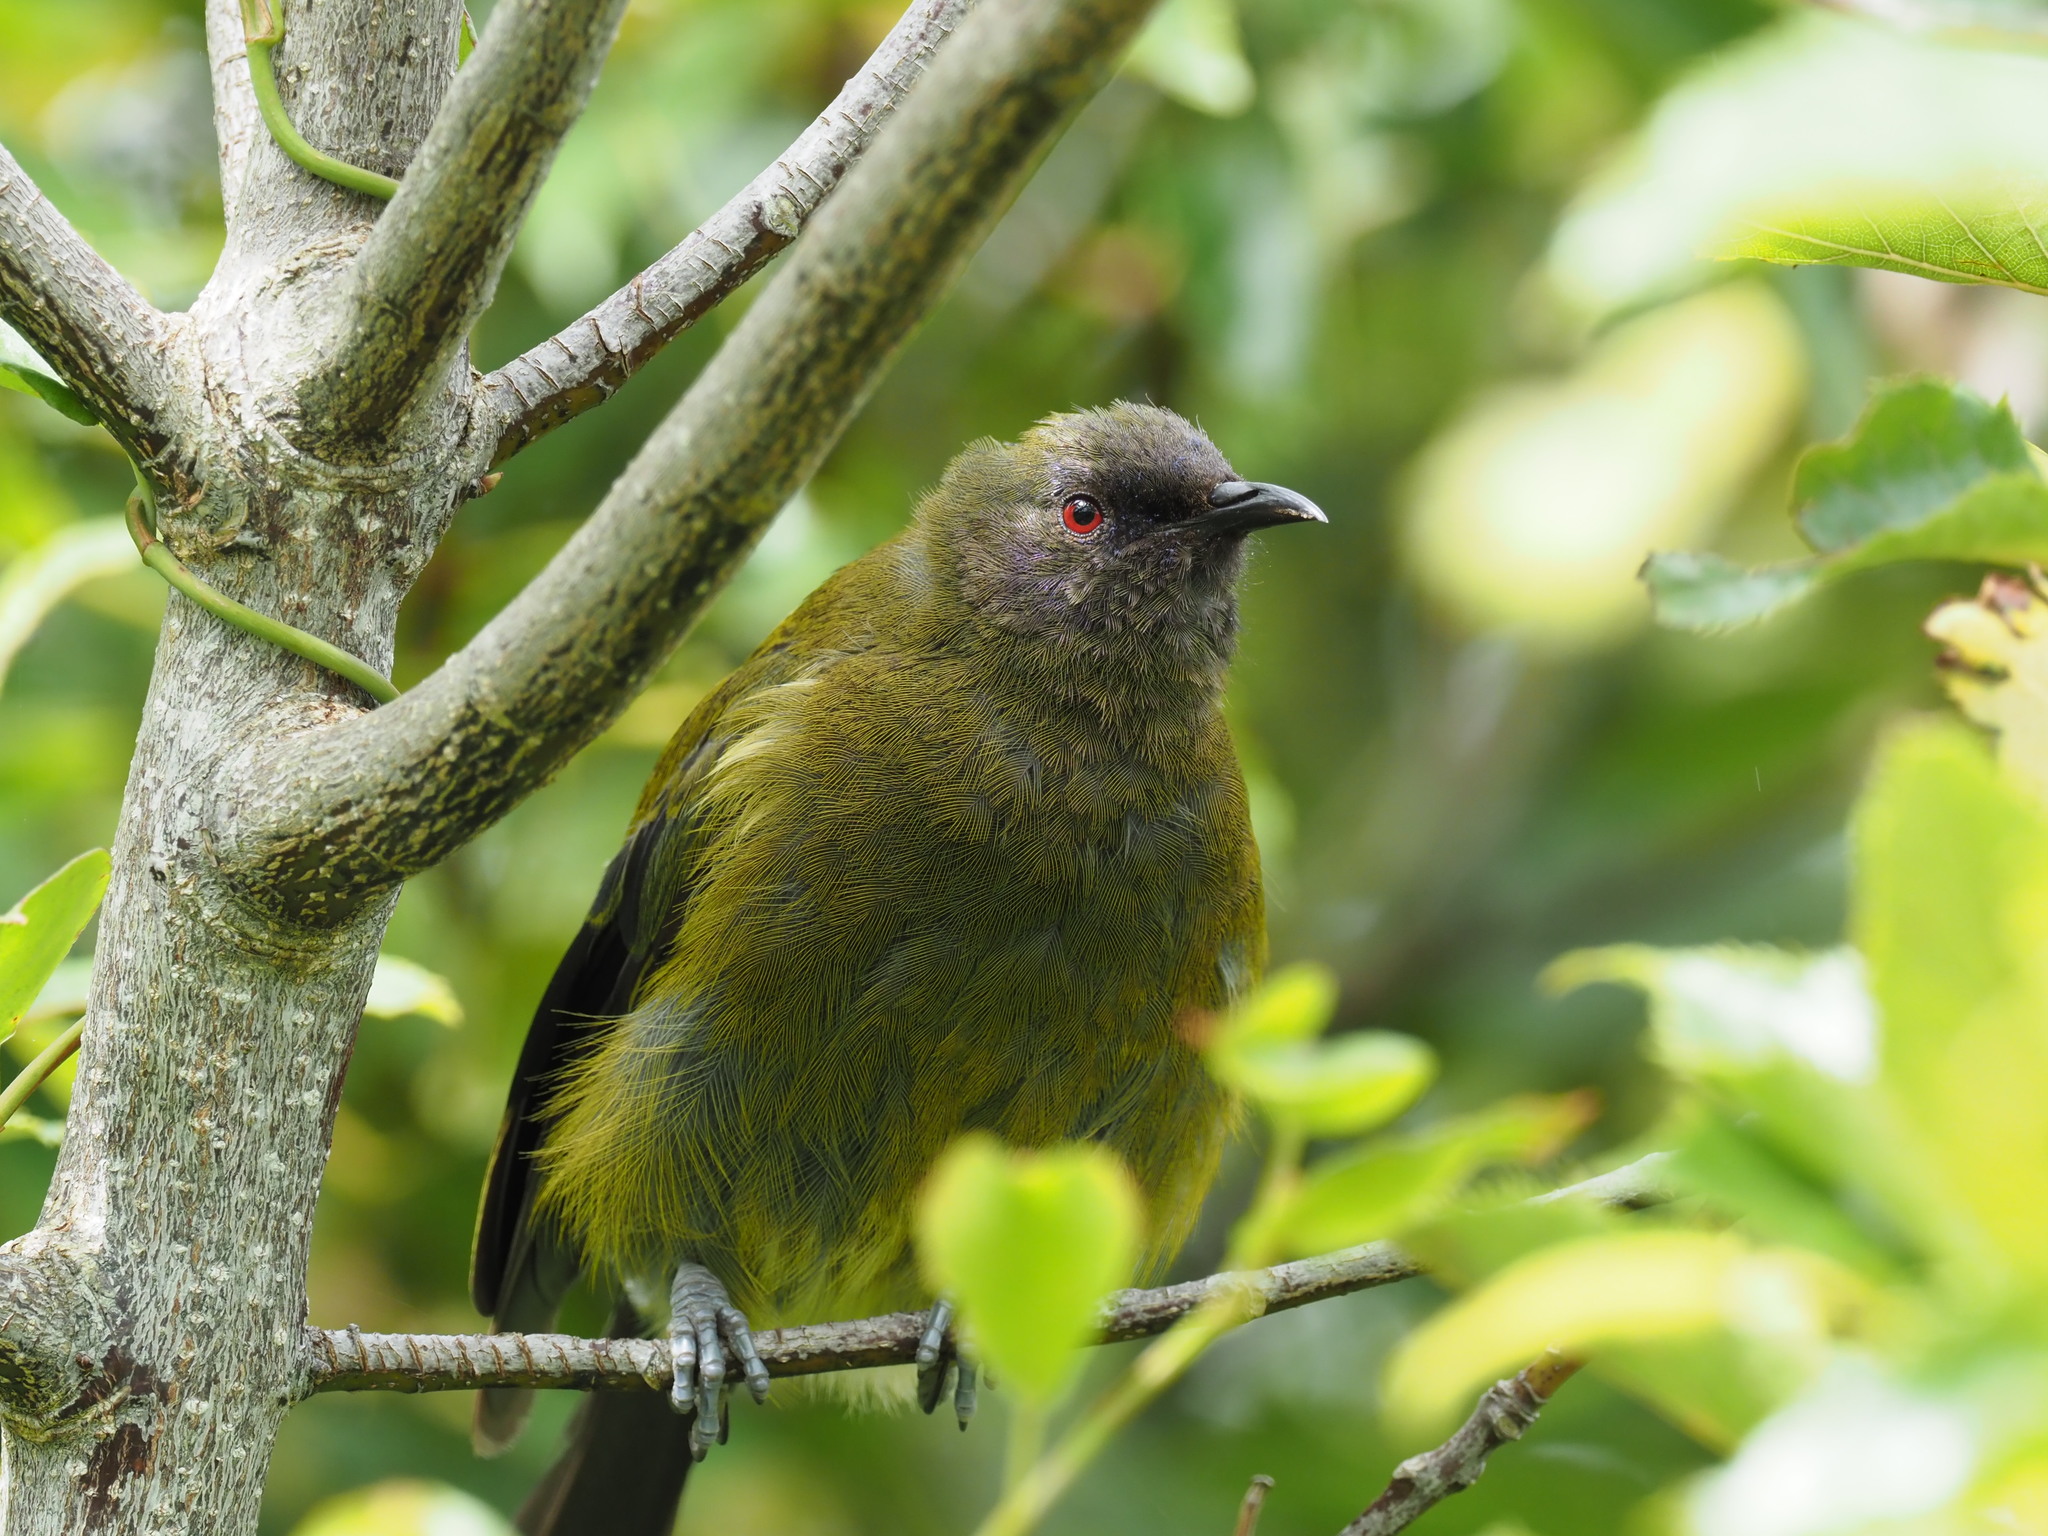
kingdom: Animalia
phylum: Chordata
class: Aves
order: Passeriformes
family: Meliphagidae
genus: Anthornis
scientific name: Anthornis melanura
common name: New zealand bellbird
